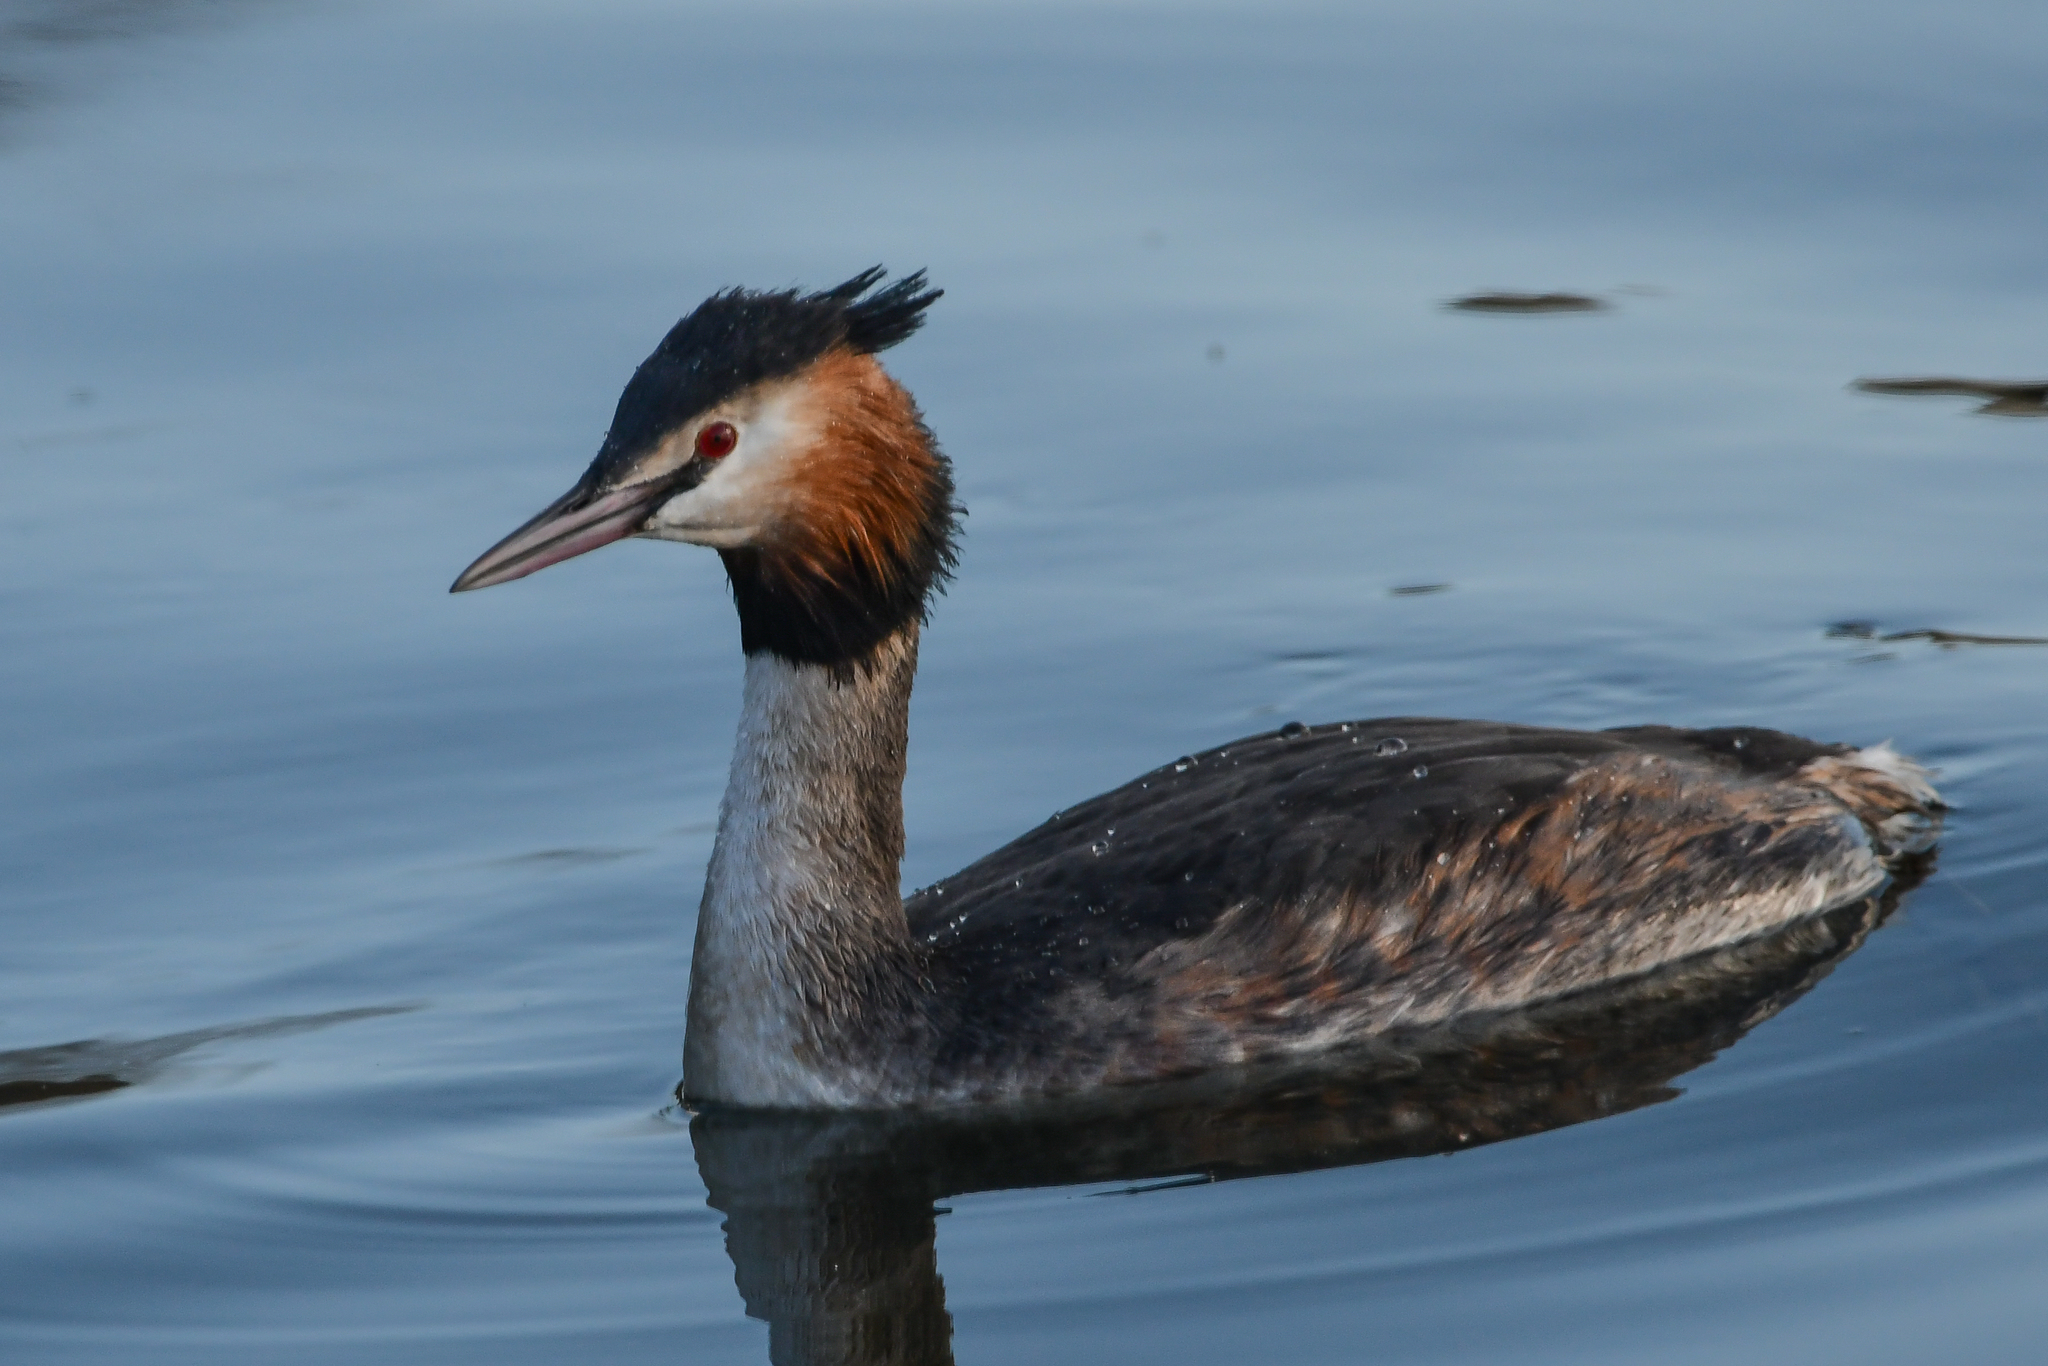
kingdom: Animalia
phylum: Chordata
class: Aves
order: Podicipediformes
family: Podicipedidae
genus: Podiceps
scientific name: Podiceps cristatus
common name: Great crested grebe
